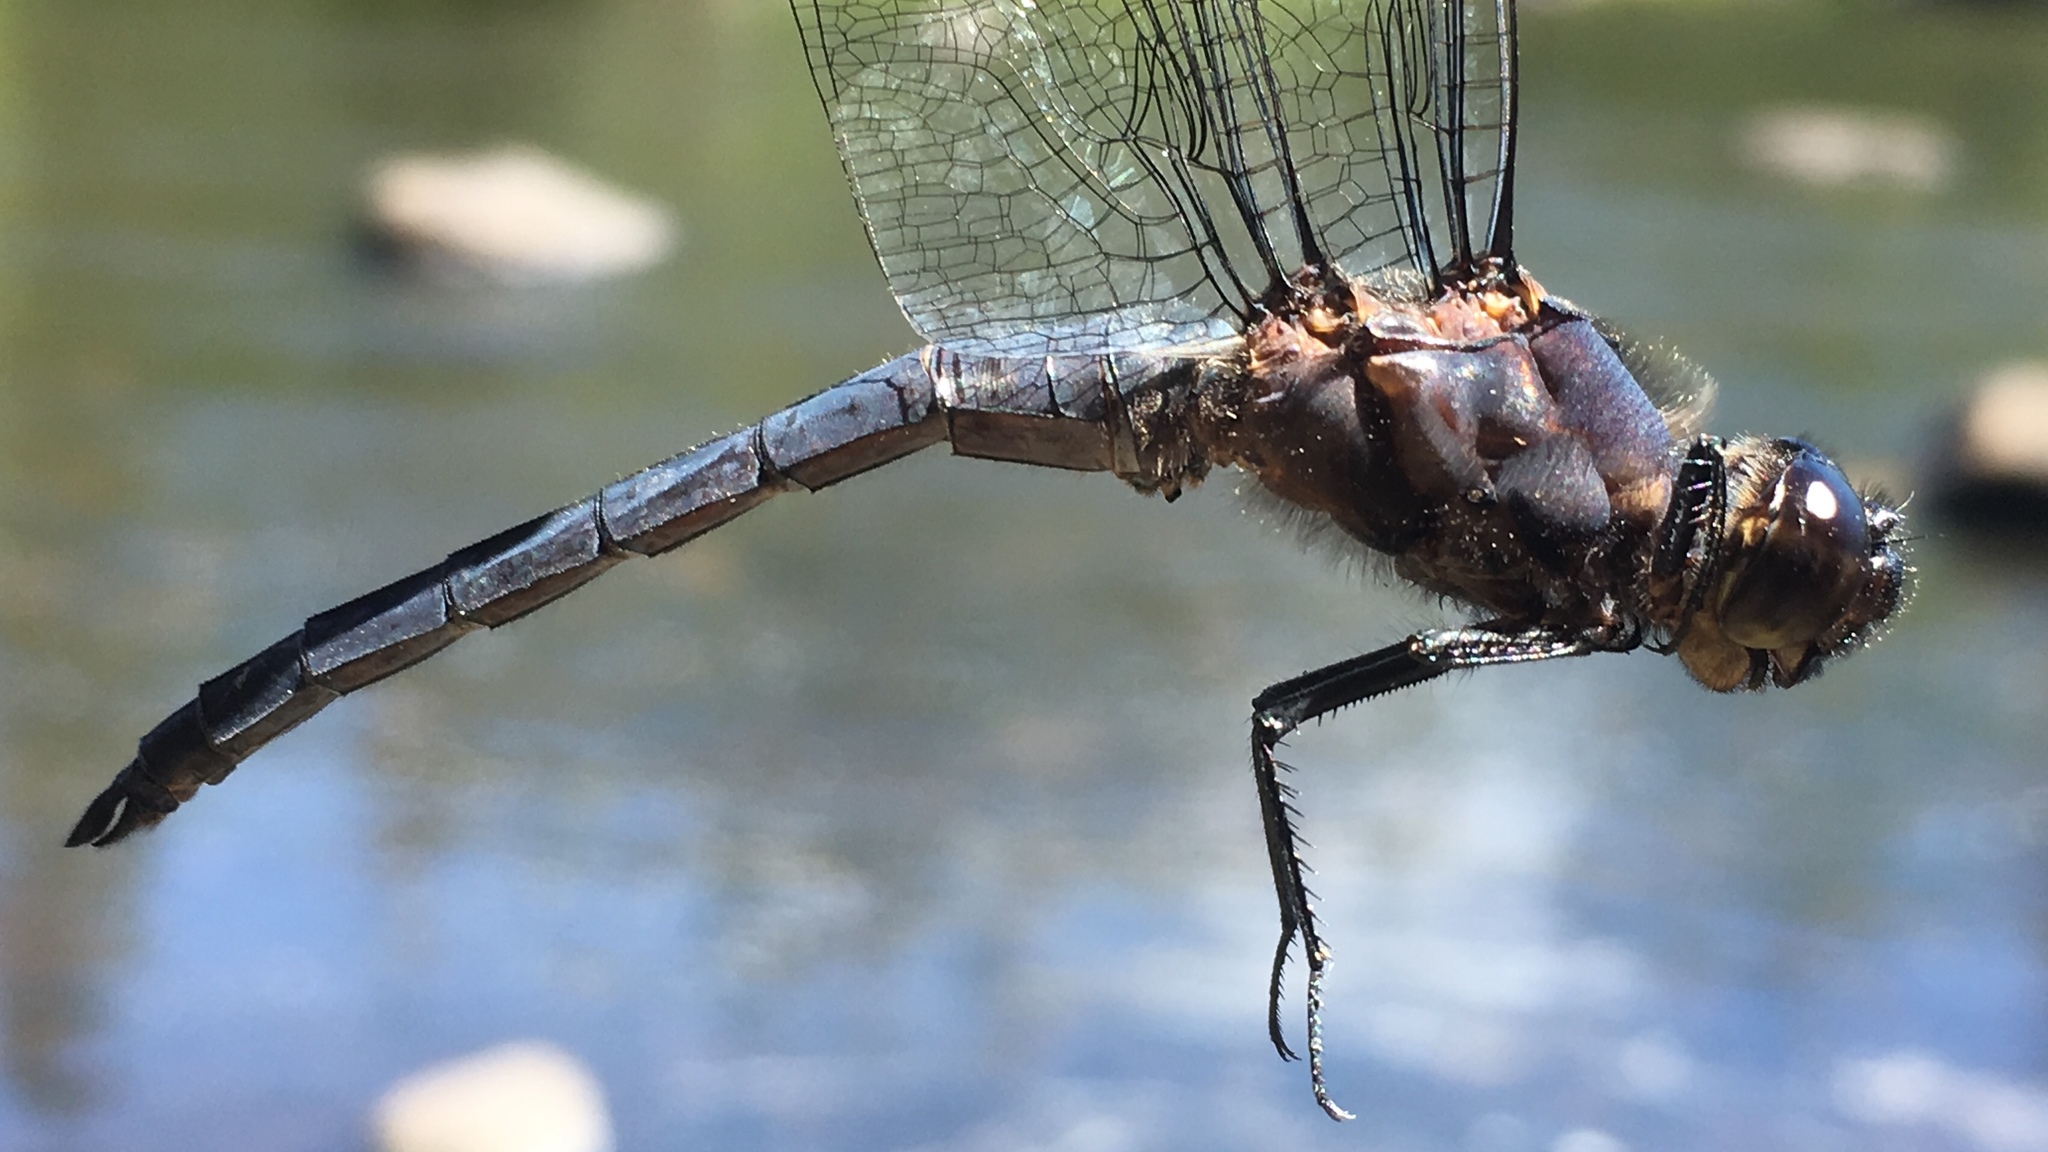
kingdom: Animalia
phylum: Arthropoda
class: Insecta
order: Odonata
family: Libellulidae
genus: Libellula
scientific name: Libellula incesta
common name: Slaty skimmer
